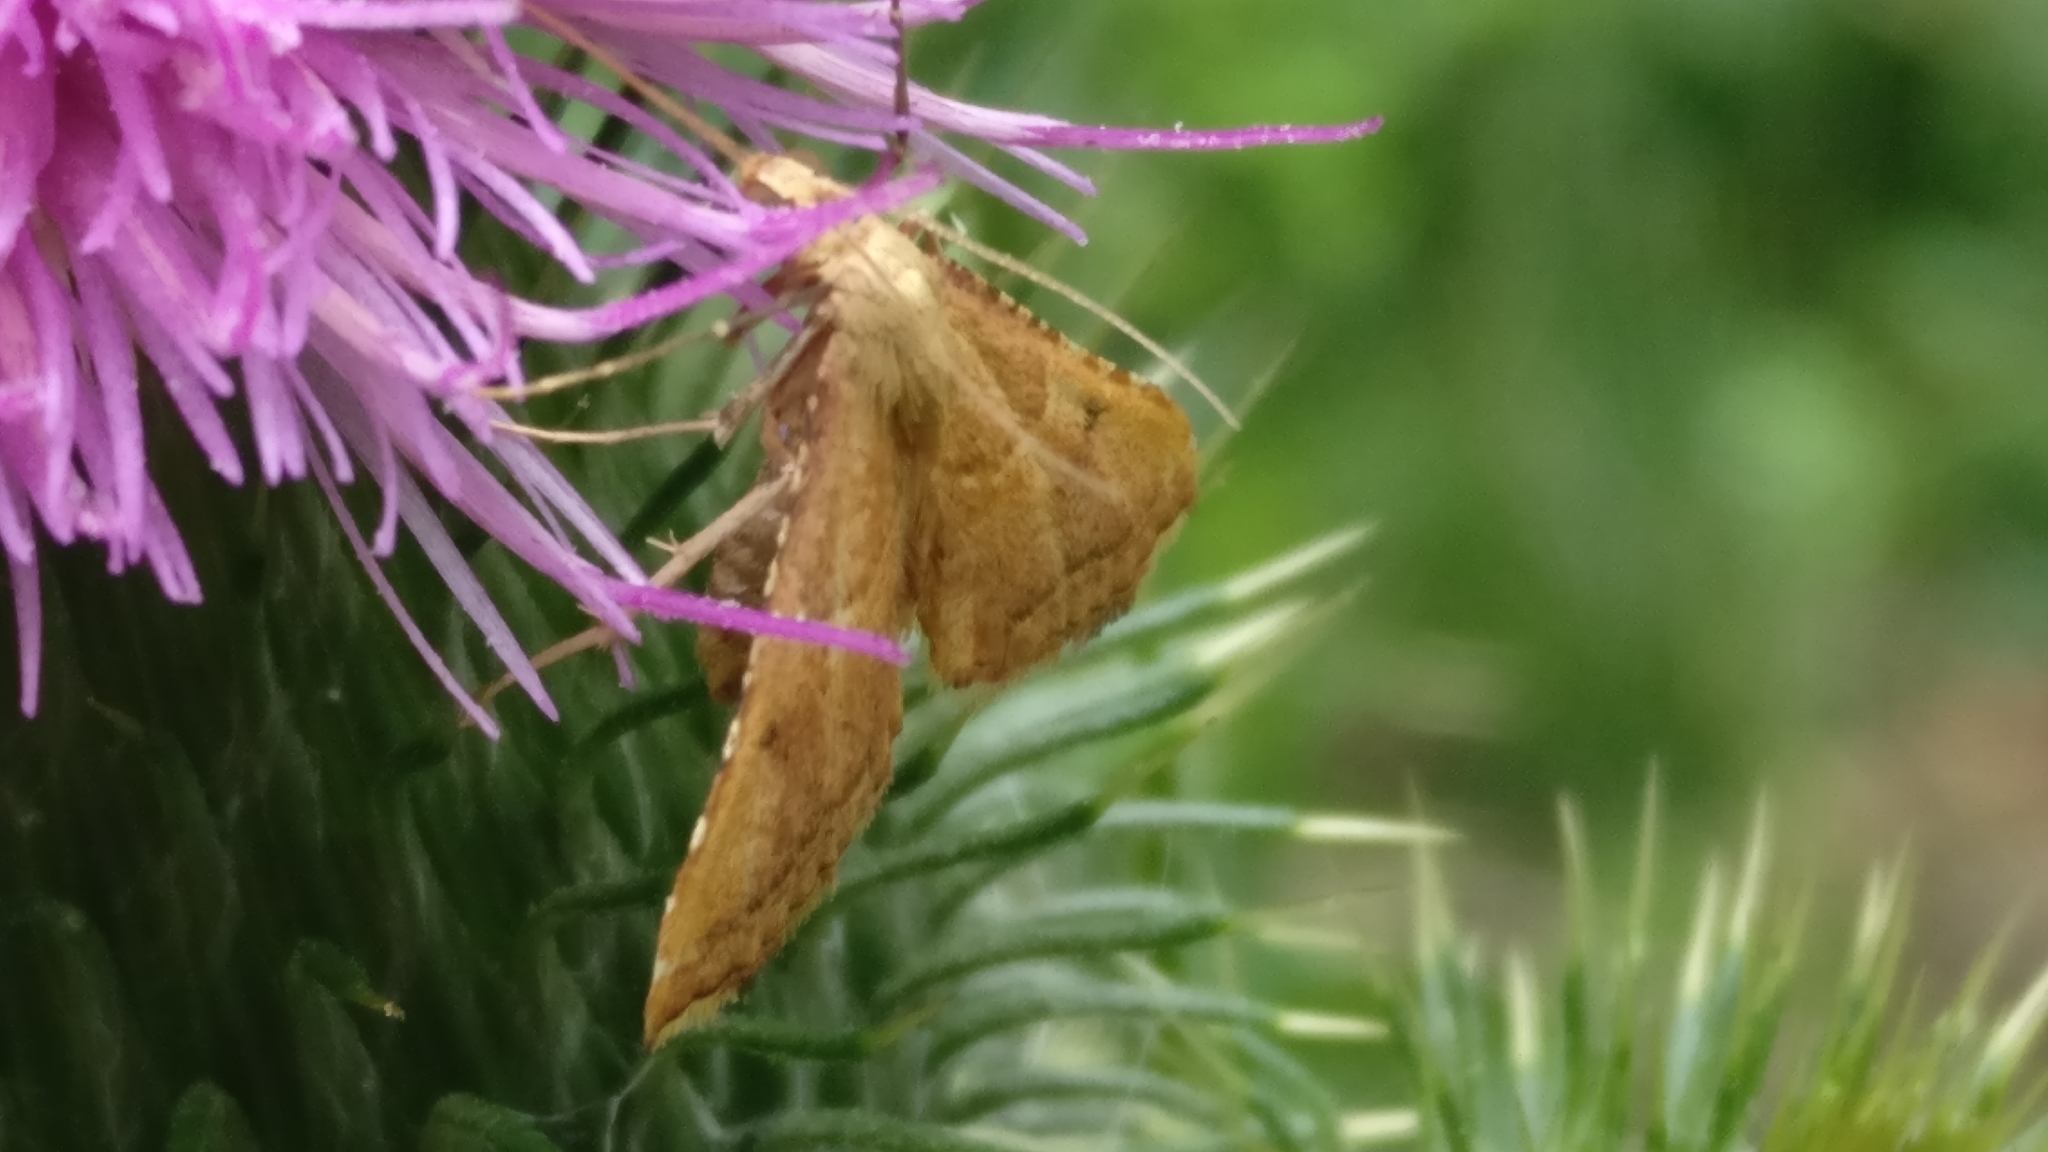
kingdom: Animalia
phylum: Arthropoda
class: Insecta
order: Lepidoptera
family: Pyralidae
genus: Endotricha
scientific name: Endotricha flammealis
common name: Rosy tabby
